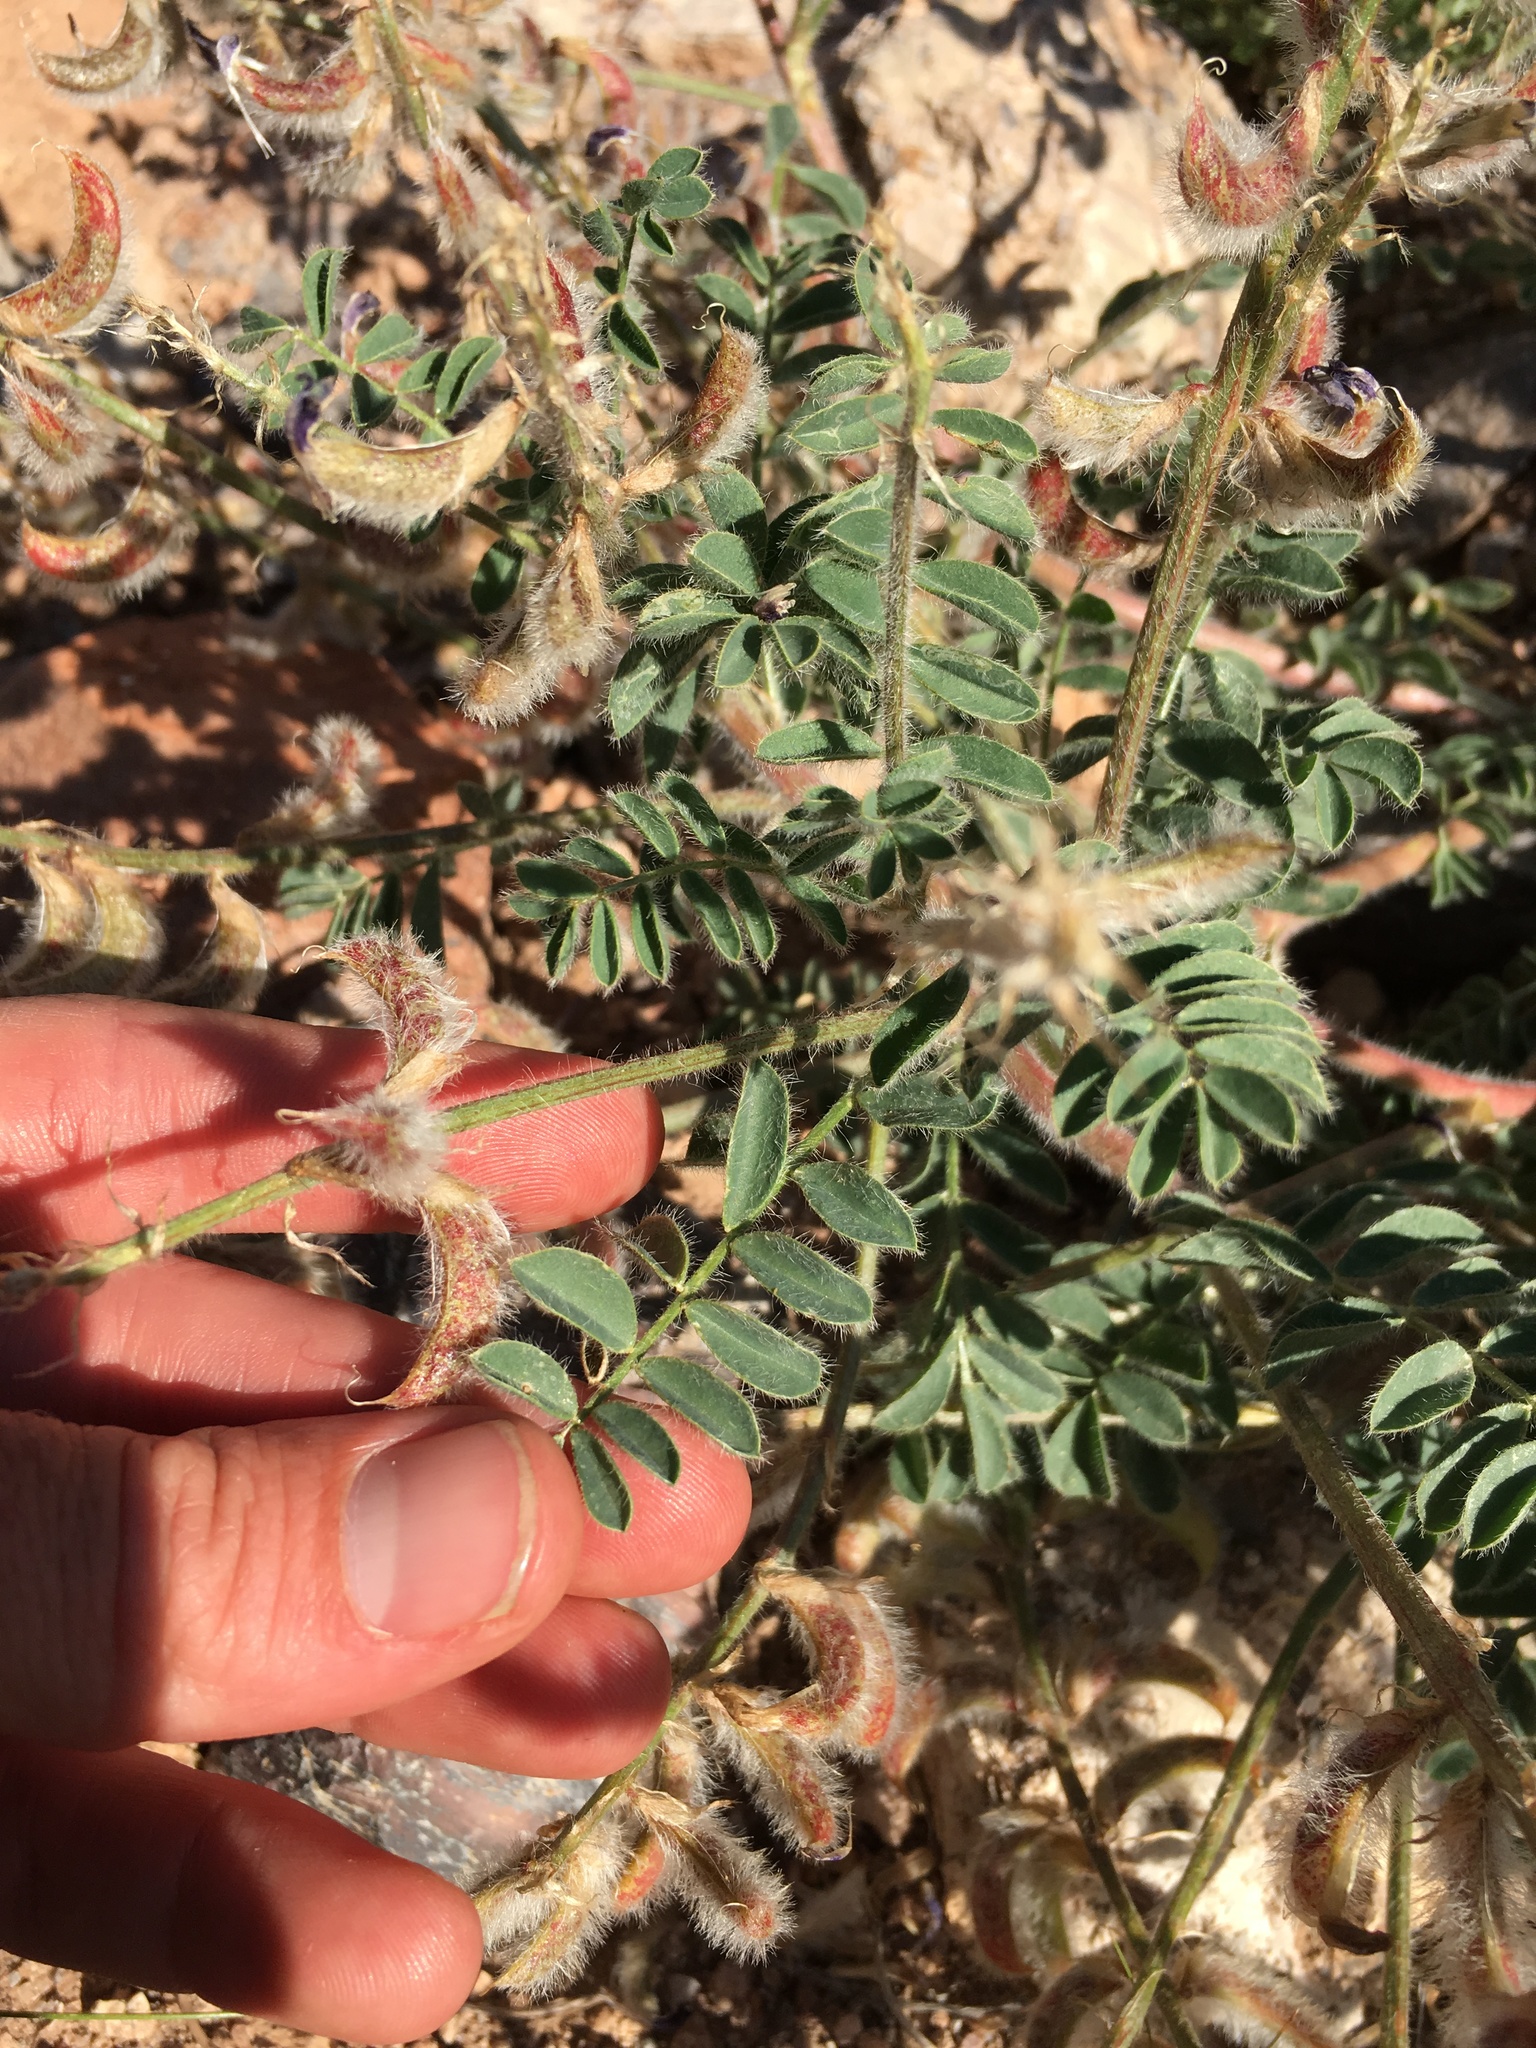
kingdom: Plantae
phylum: Tracheophyta
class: Magnoliopsida
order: Fabales
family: Fabaceae
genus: Astragalus
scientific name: Astragalus malacus
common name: Shaggy milk-vetch
